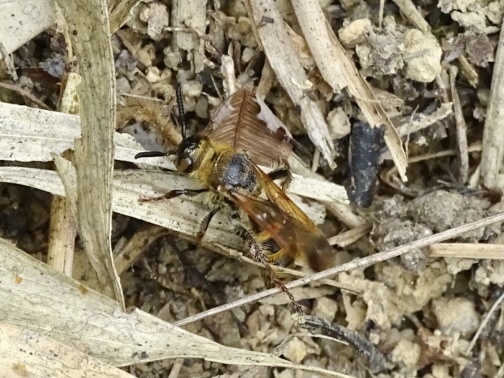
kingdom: Animalia
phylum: Arthropoda
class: Insecta
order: Hymenoptera
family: Scoliidae
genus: Campsomeris
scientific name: Campsomeris phalerata
